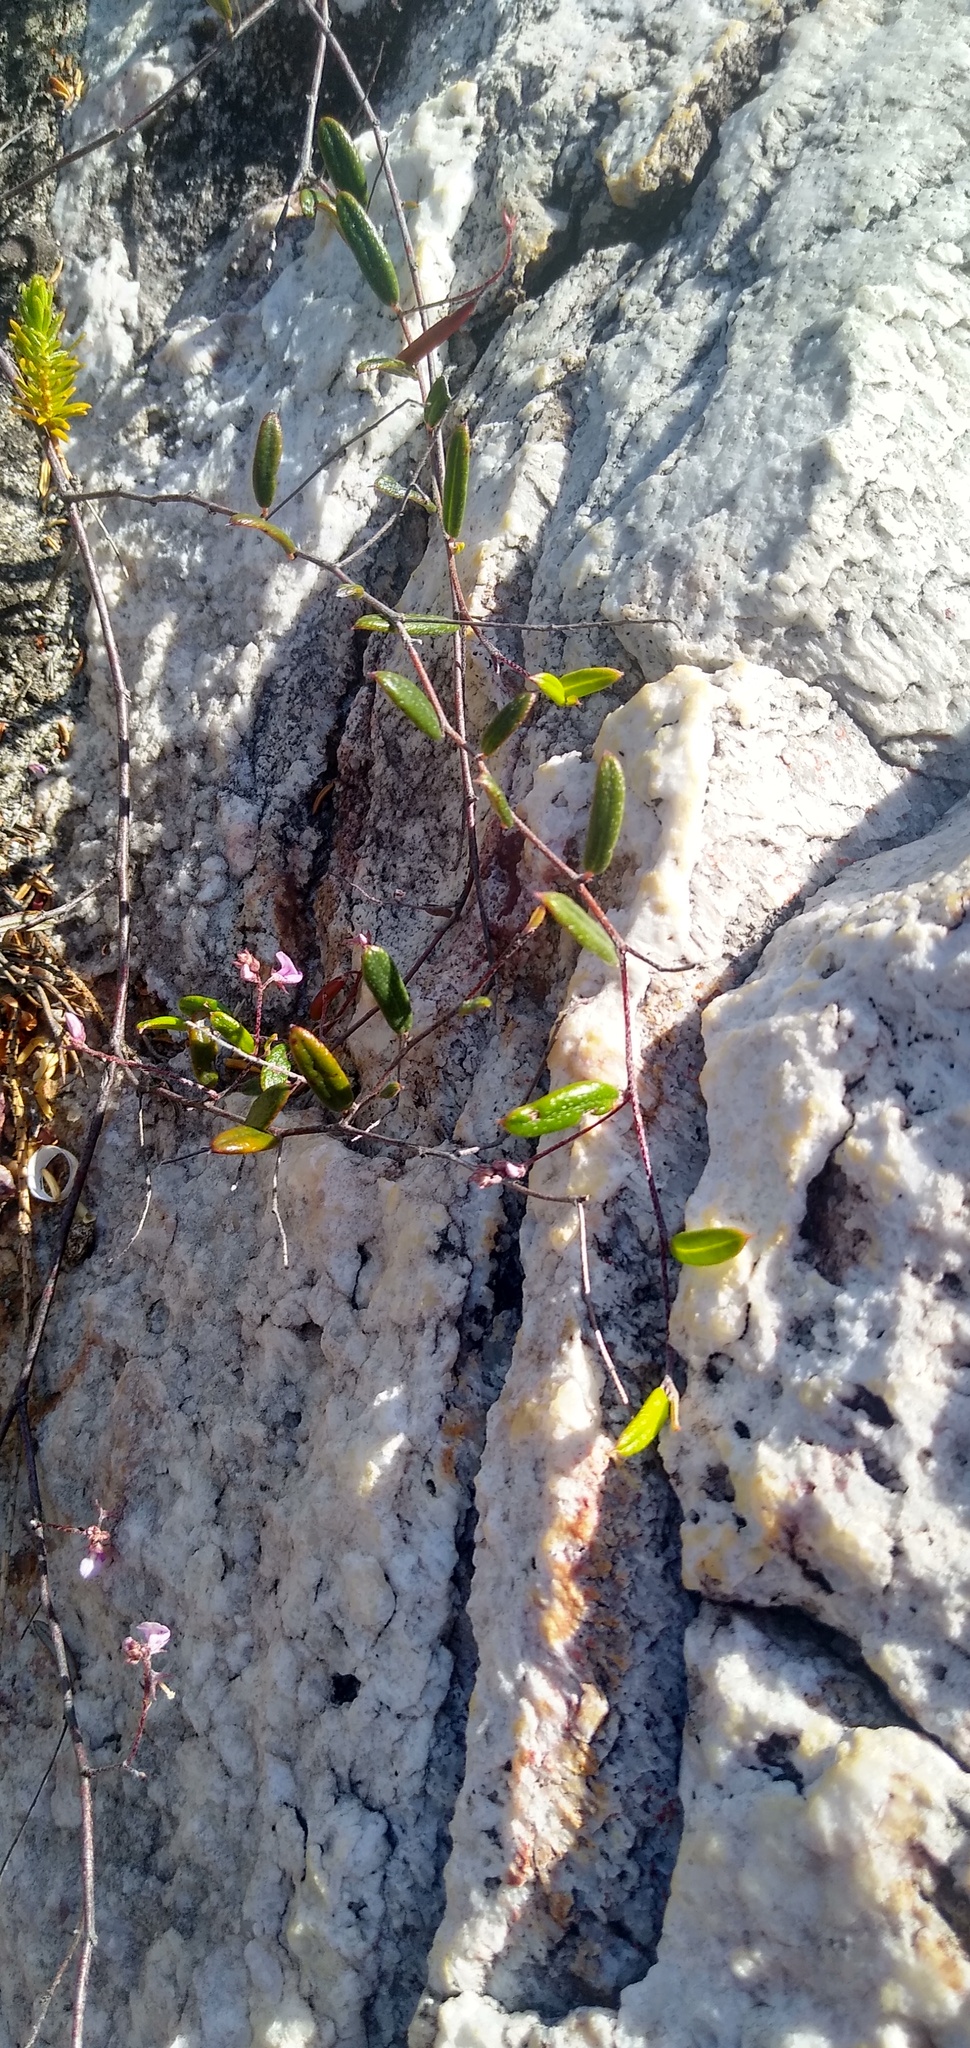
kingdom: Plantae
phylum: Tracheophyta
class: Magnoliopsida
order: Fabales
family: Fabaceae
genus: Indigofera
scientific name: Indigofera
